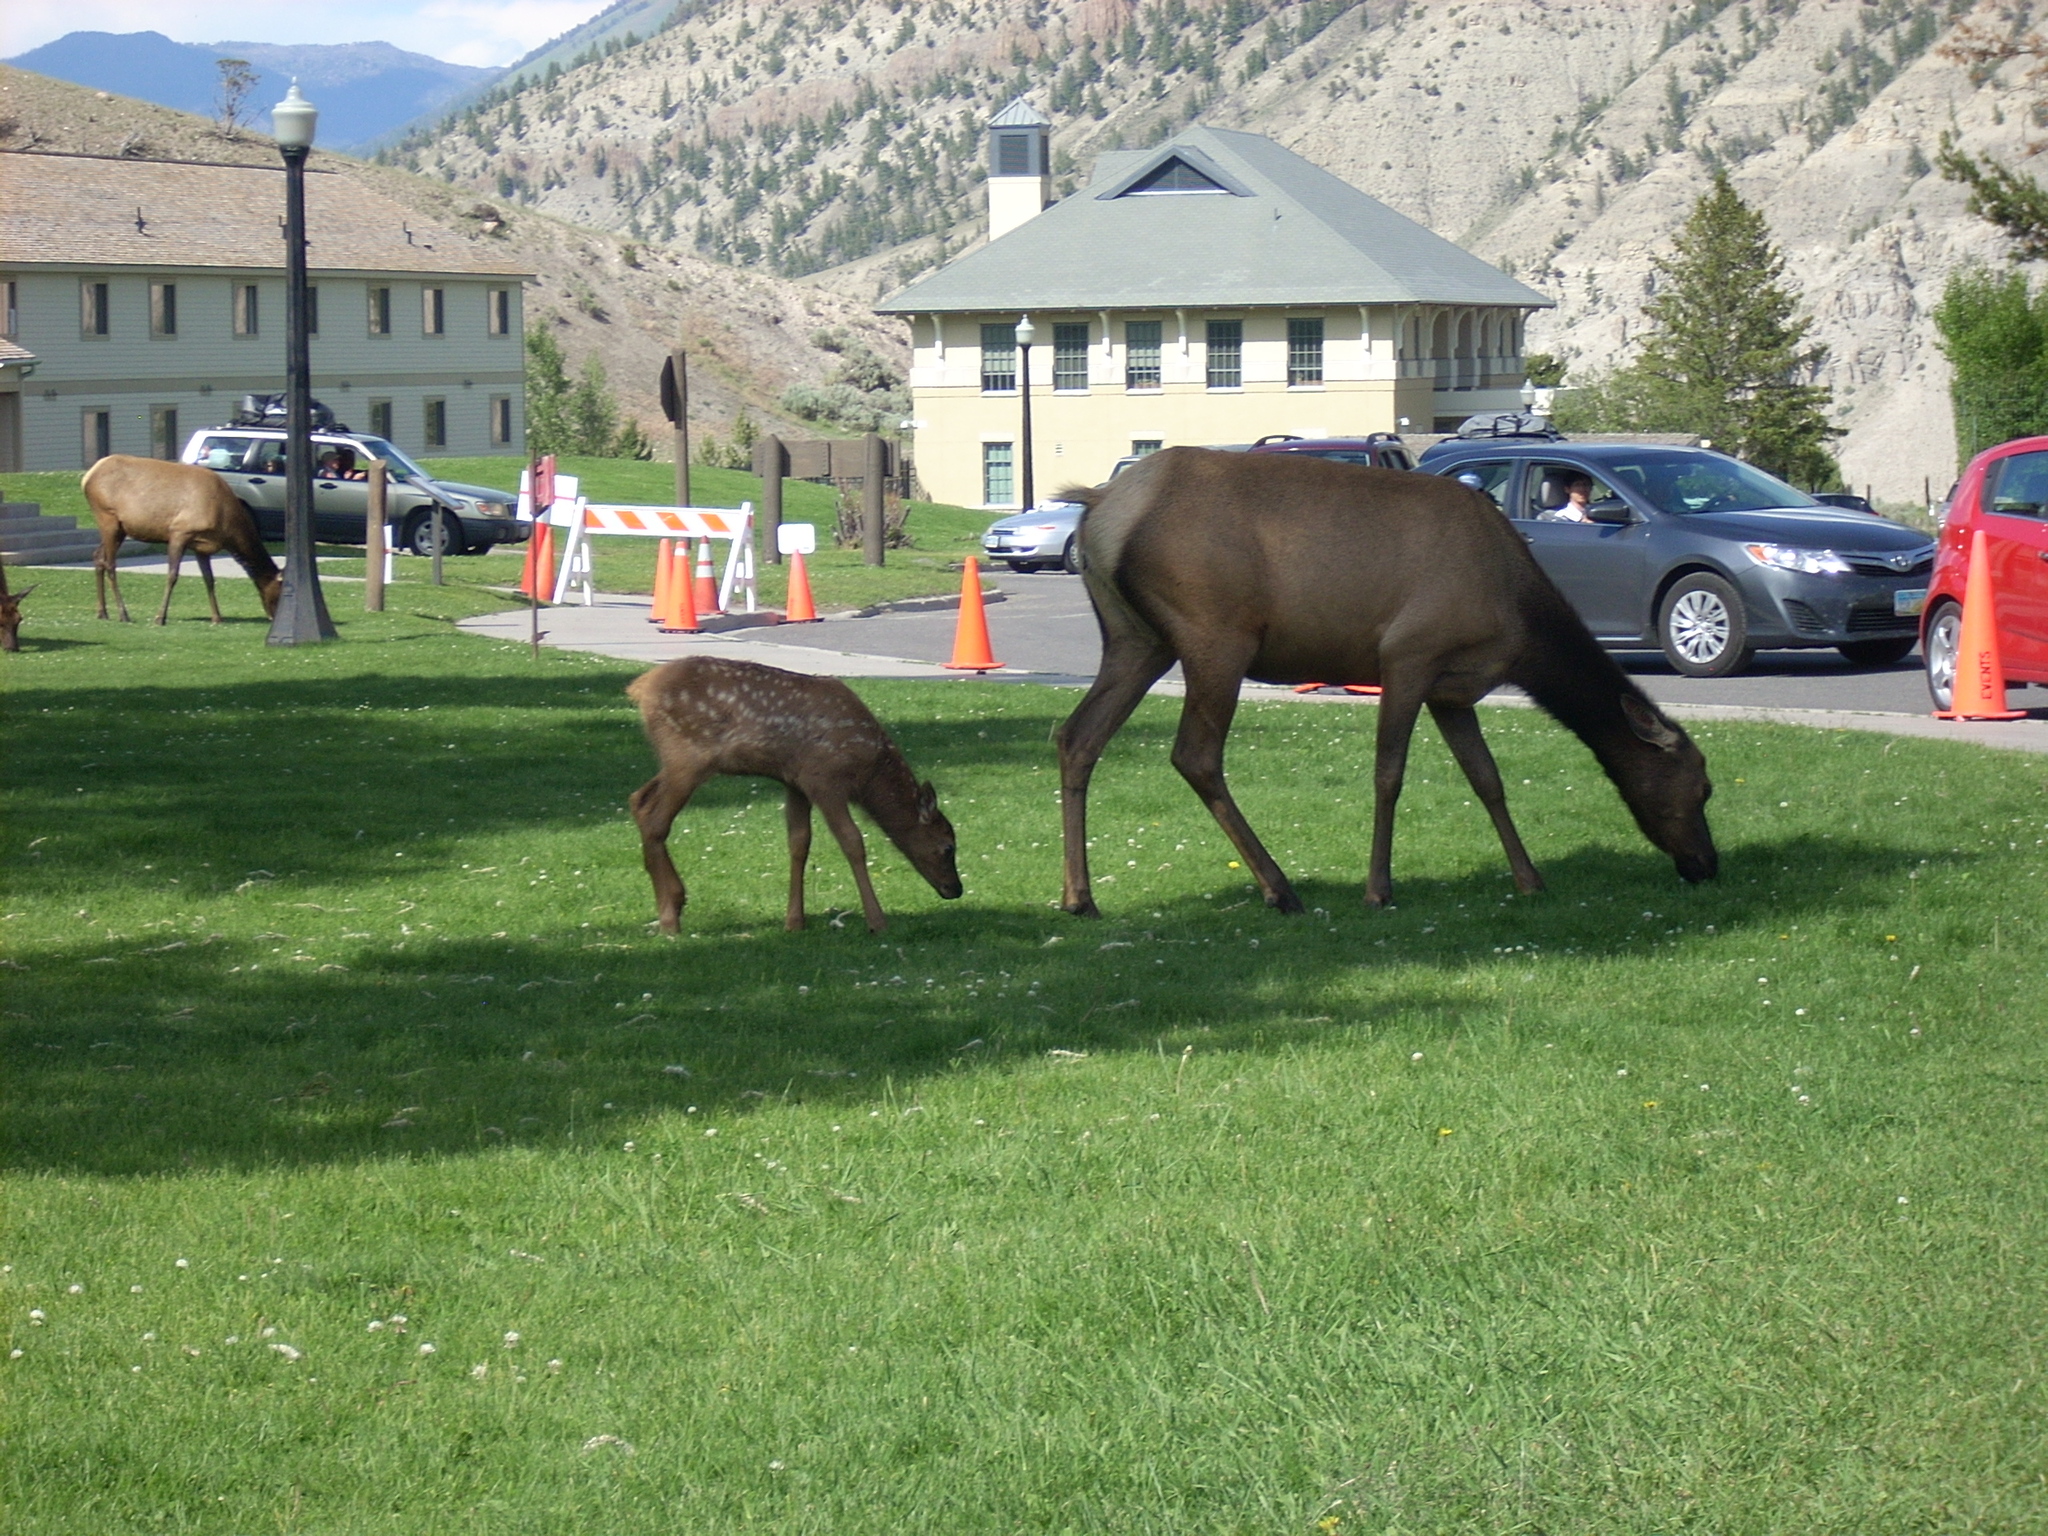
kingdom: Animalia
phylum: Chordata
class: Mammalia
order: Artiodactyla
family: Cervidae
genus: Cervus
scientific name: Cervus elaphus
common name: Red deer
